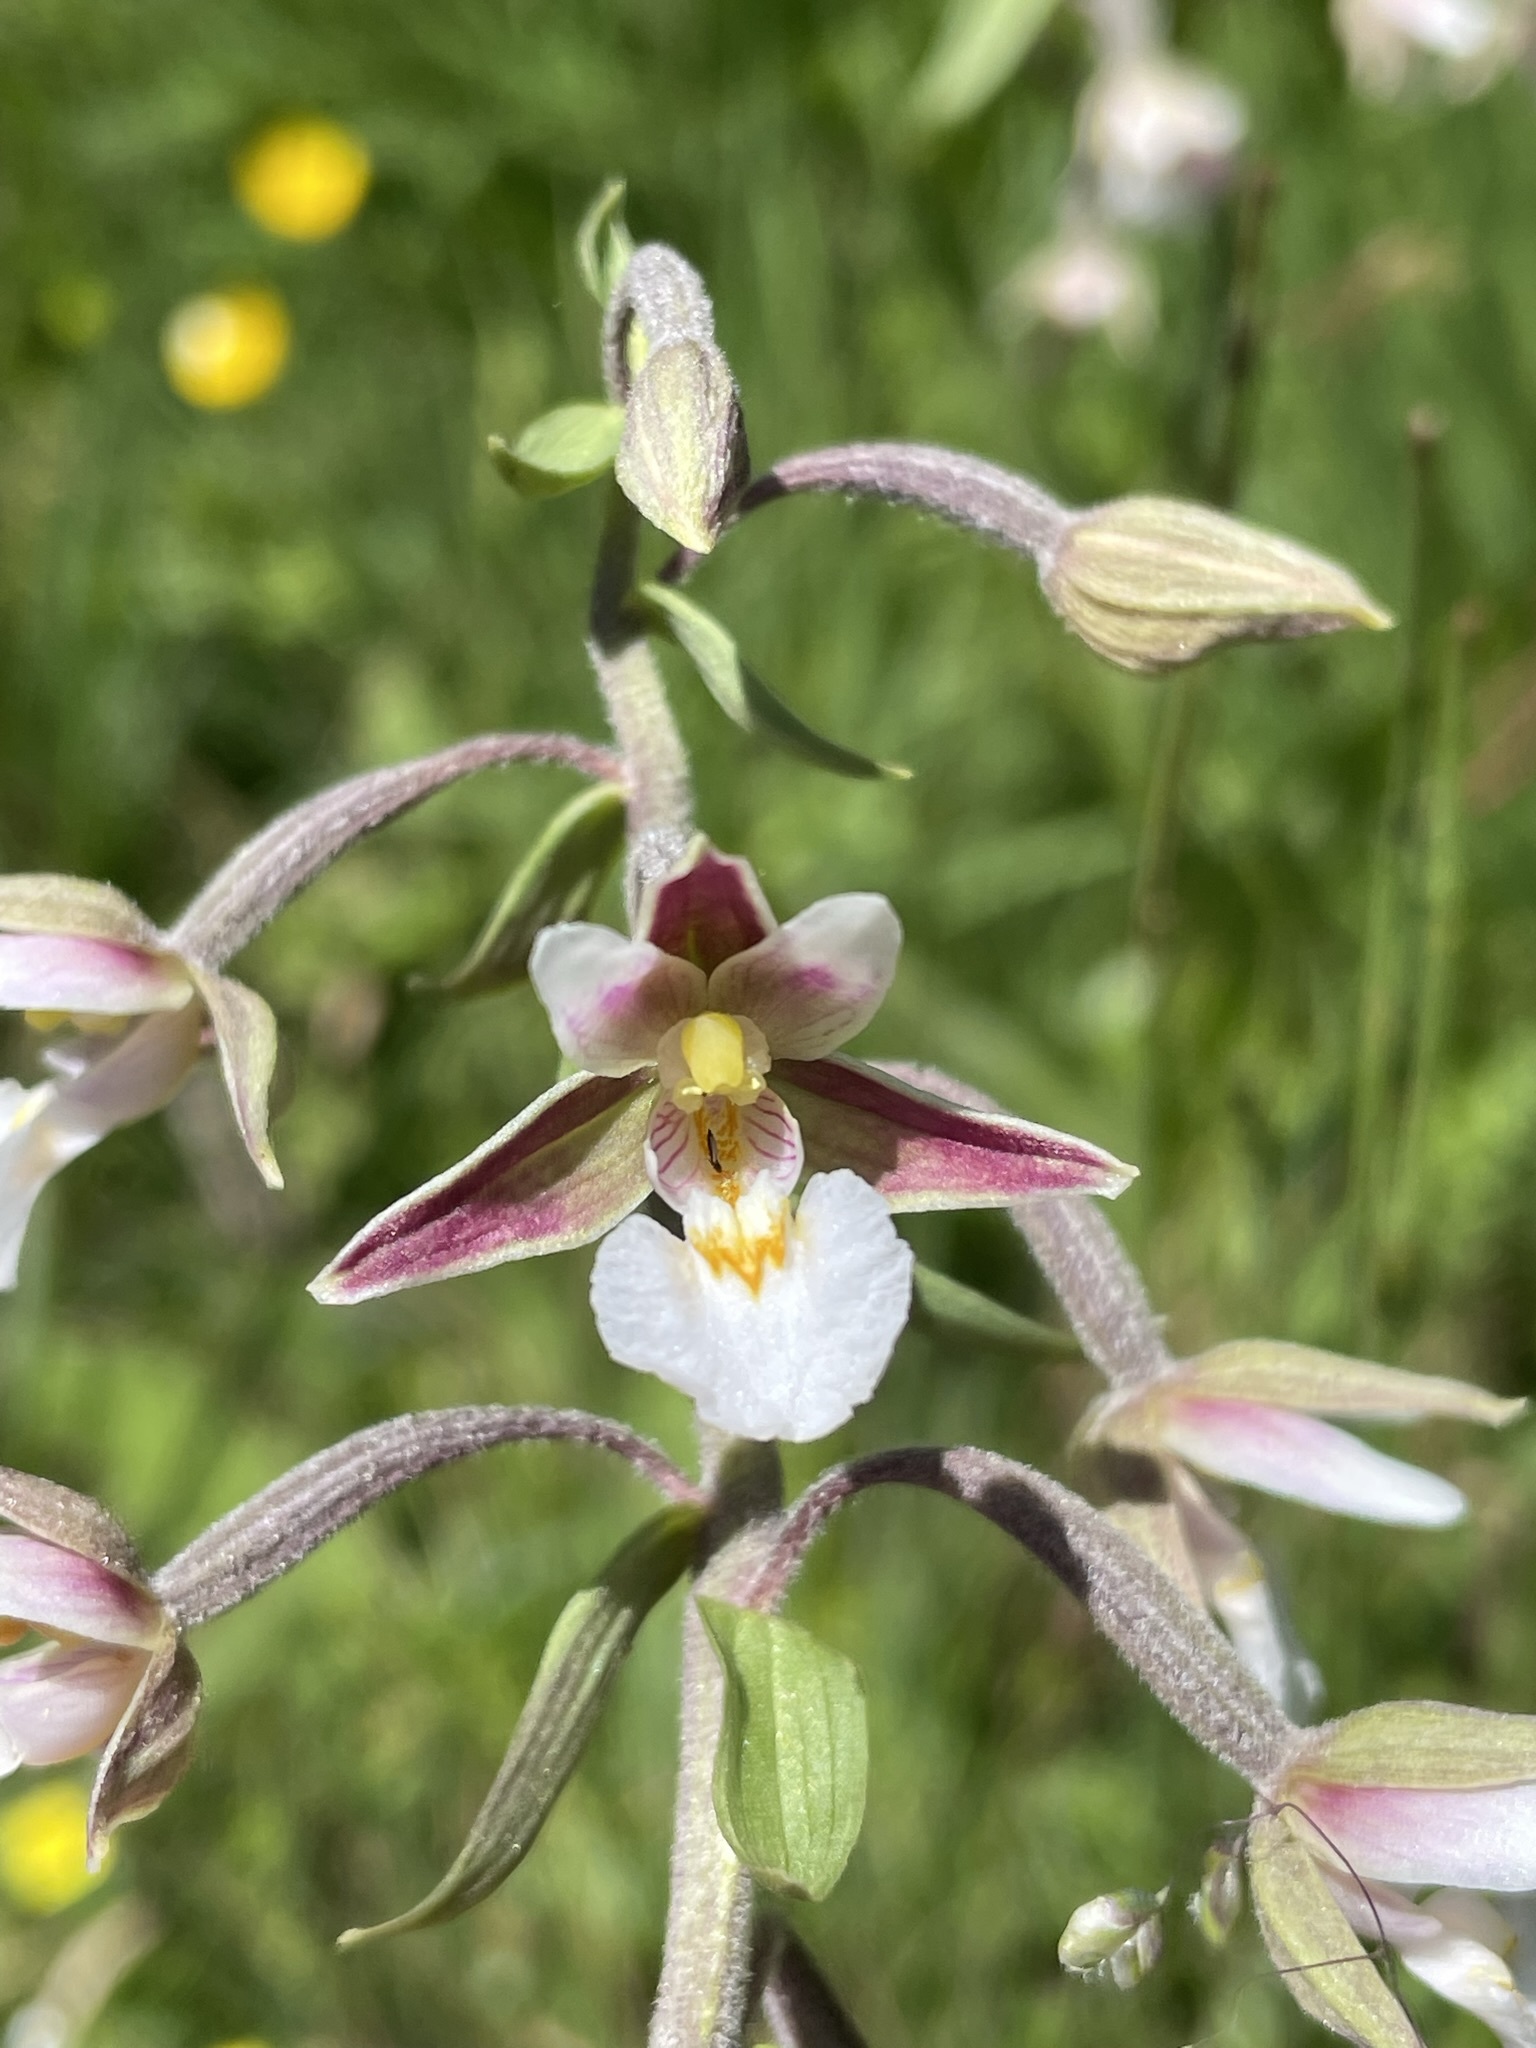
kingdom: Plantae
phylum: Tracheophyta
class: Liliopsida
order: Asparagales
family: Orchidaceae
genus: Epipactis
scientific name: Epipactis palustris
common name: Marsh helleborine
